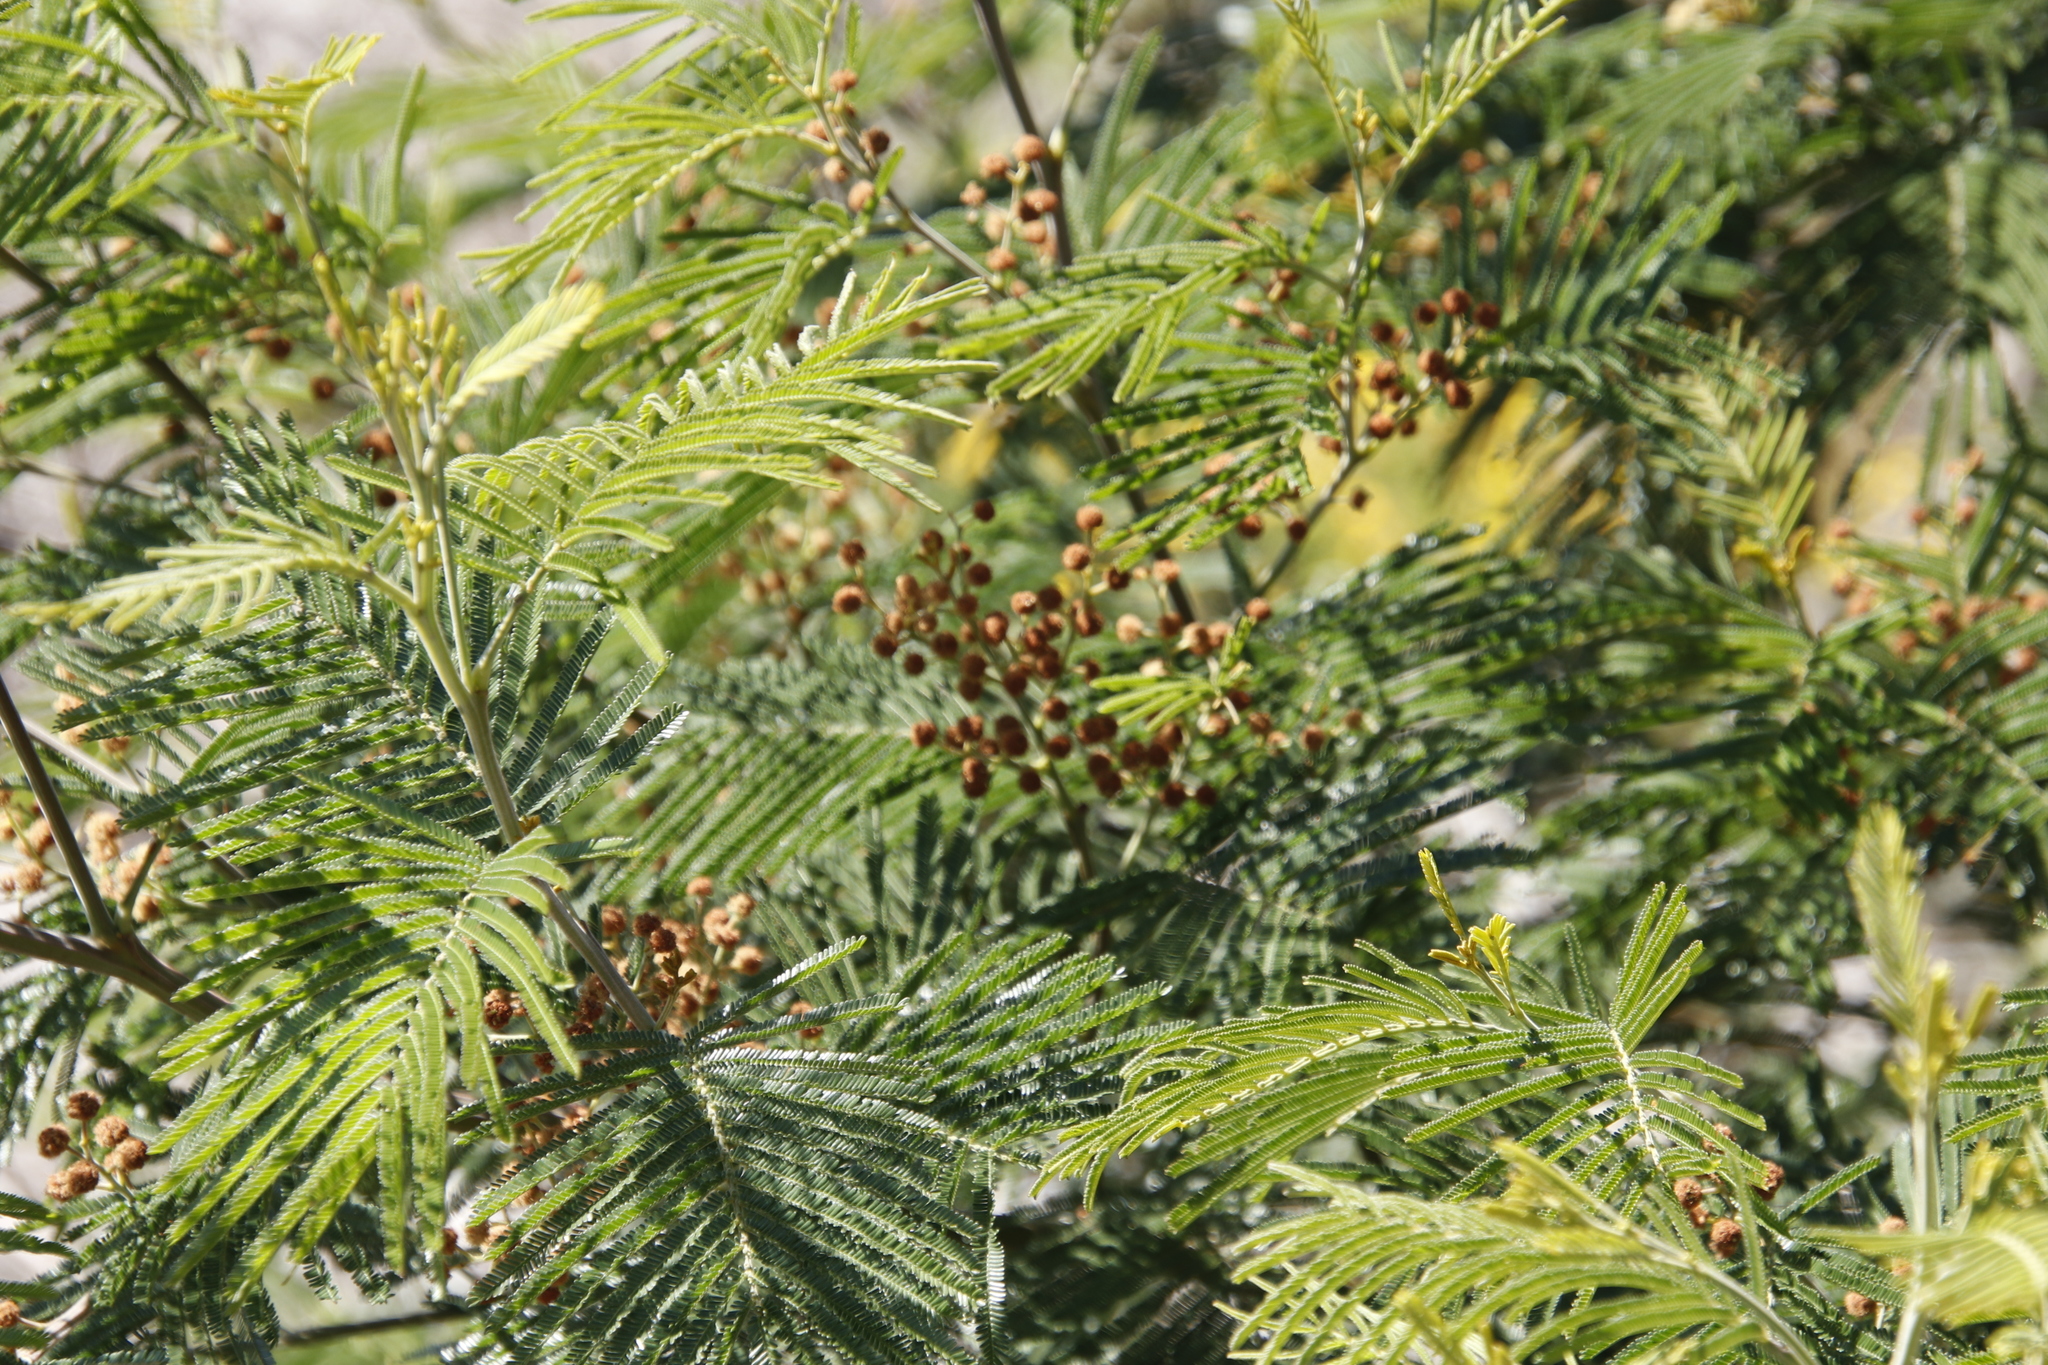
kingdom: Plantae
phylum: Tracheophyta
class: Magnoliopsida
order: Fabales
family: Fabaceae
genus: Acacia
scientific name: Acacia mearnsii
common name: Black wattle
